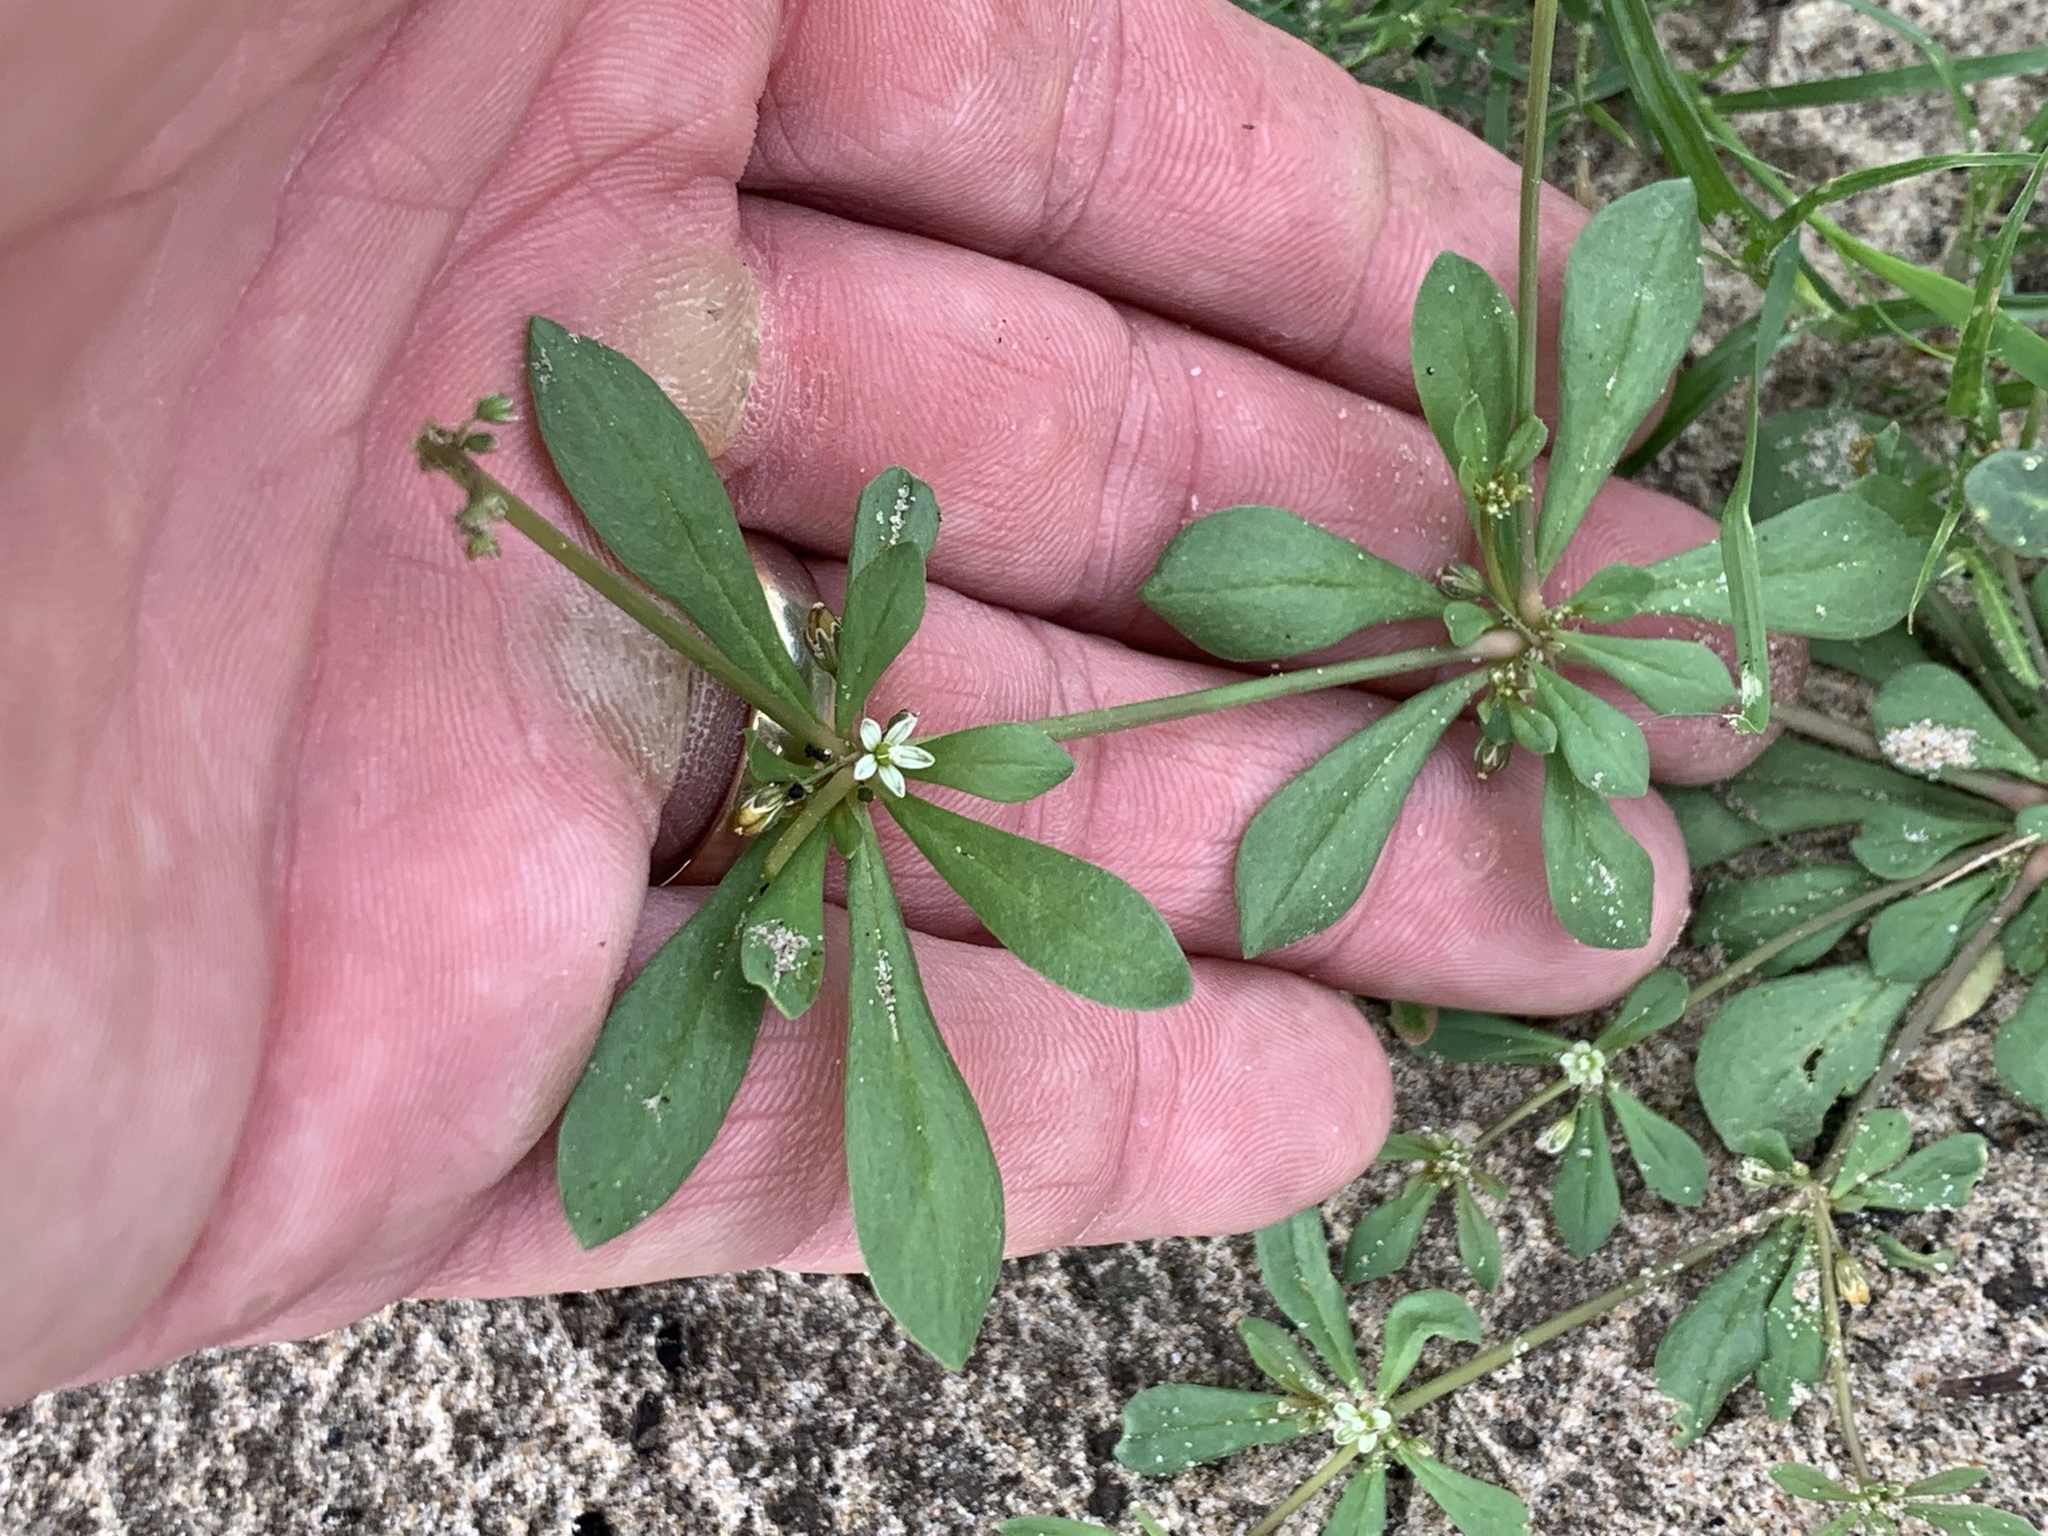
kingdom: Plantae
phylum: Tracheophyta
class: Magnoliopsida
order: Caryophyllales
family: Molluginaceae
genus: Mollugo
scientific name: Mollugo verticillata
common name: Green carpetweed
